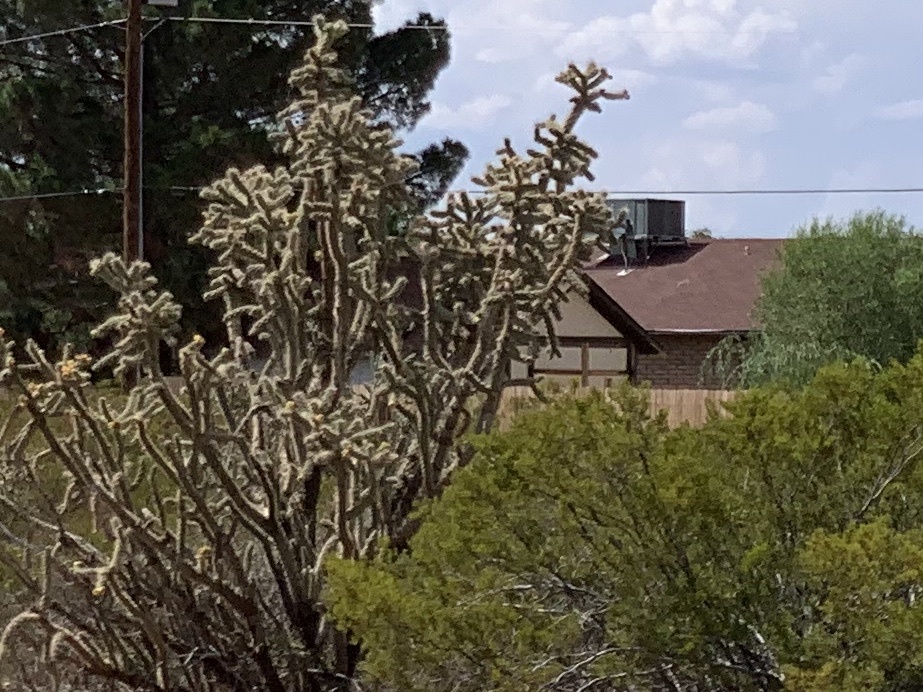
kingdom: Plantae
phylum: Tracheophyta
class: Magnoliopsida
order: Caryophyllales
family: Cactaceae
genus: Cylindropuntia
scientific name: Cylindropuntia imbricata
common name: Candelabrum cactus
